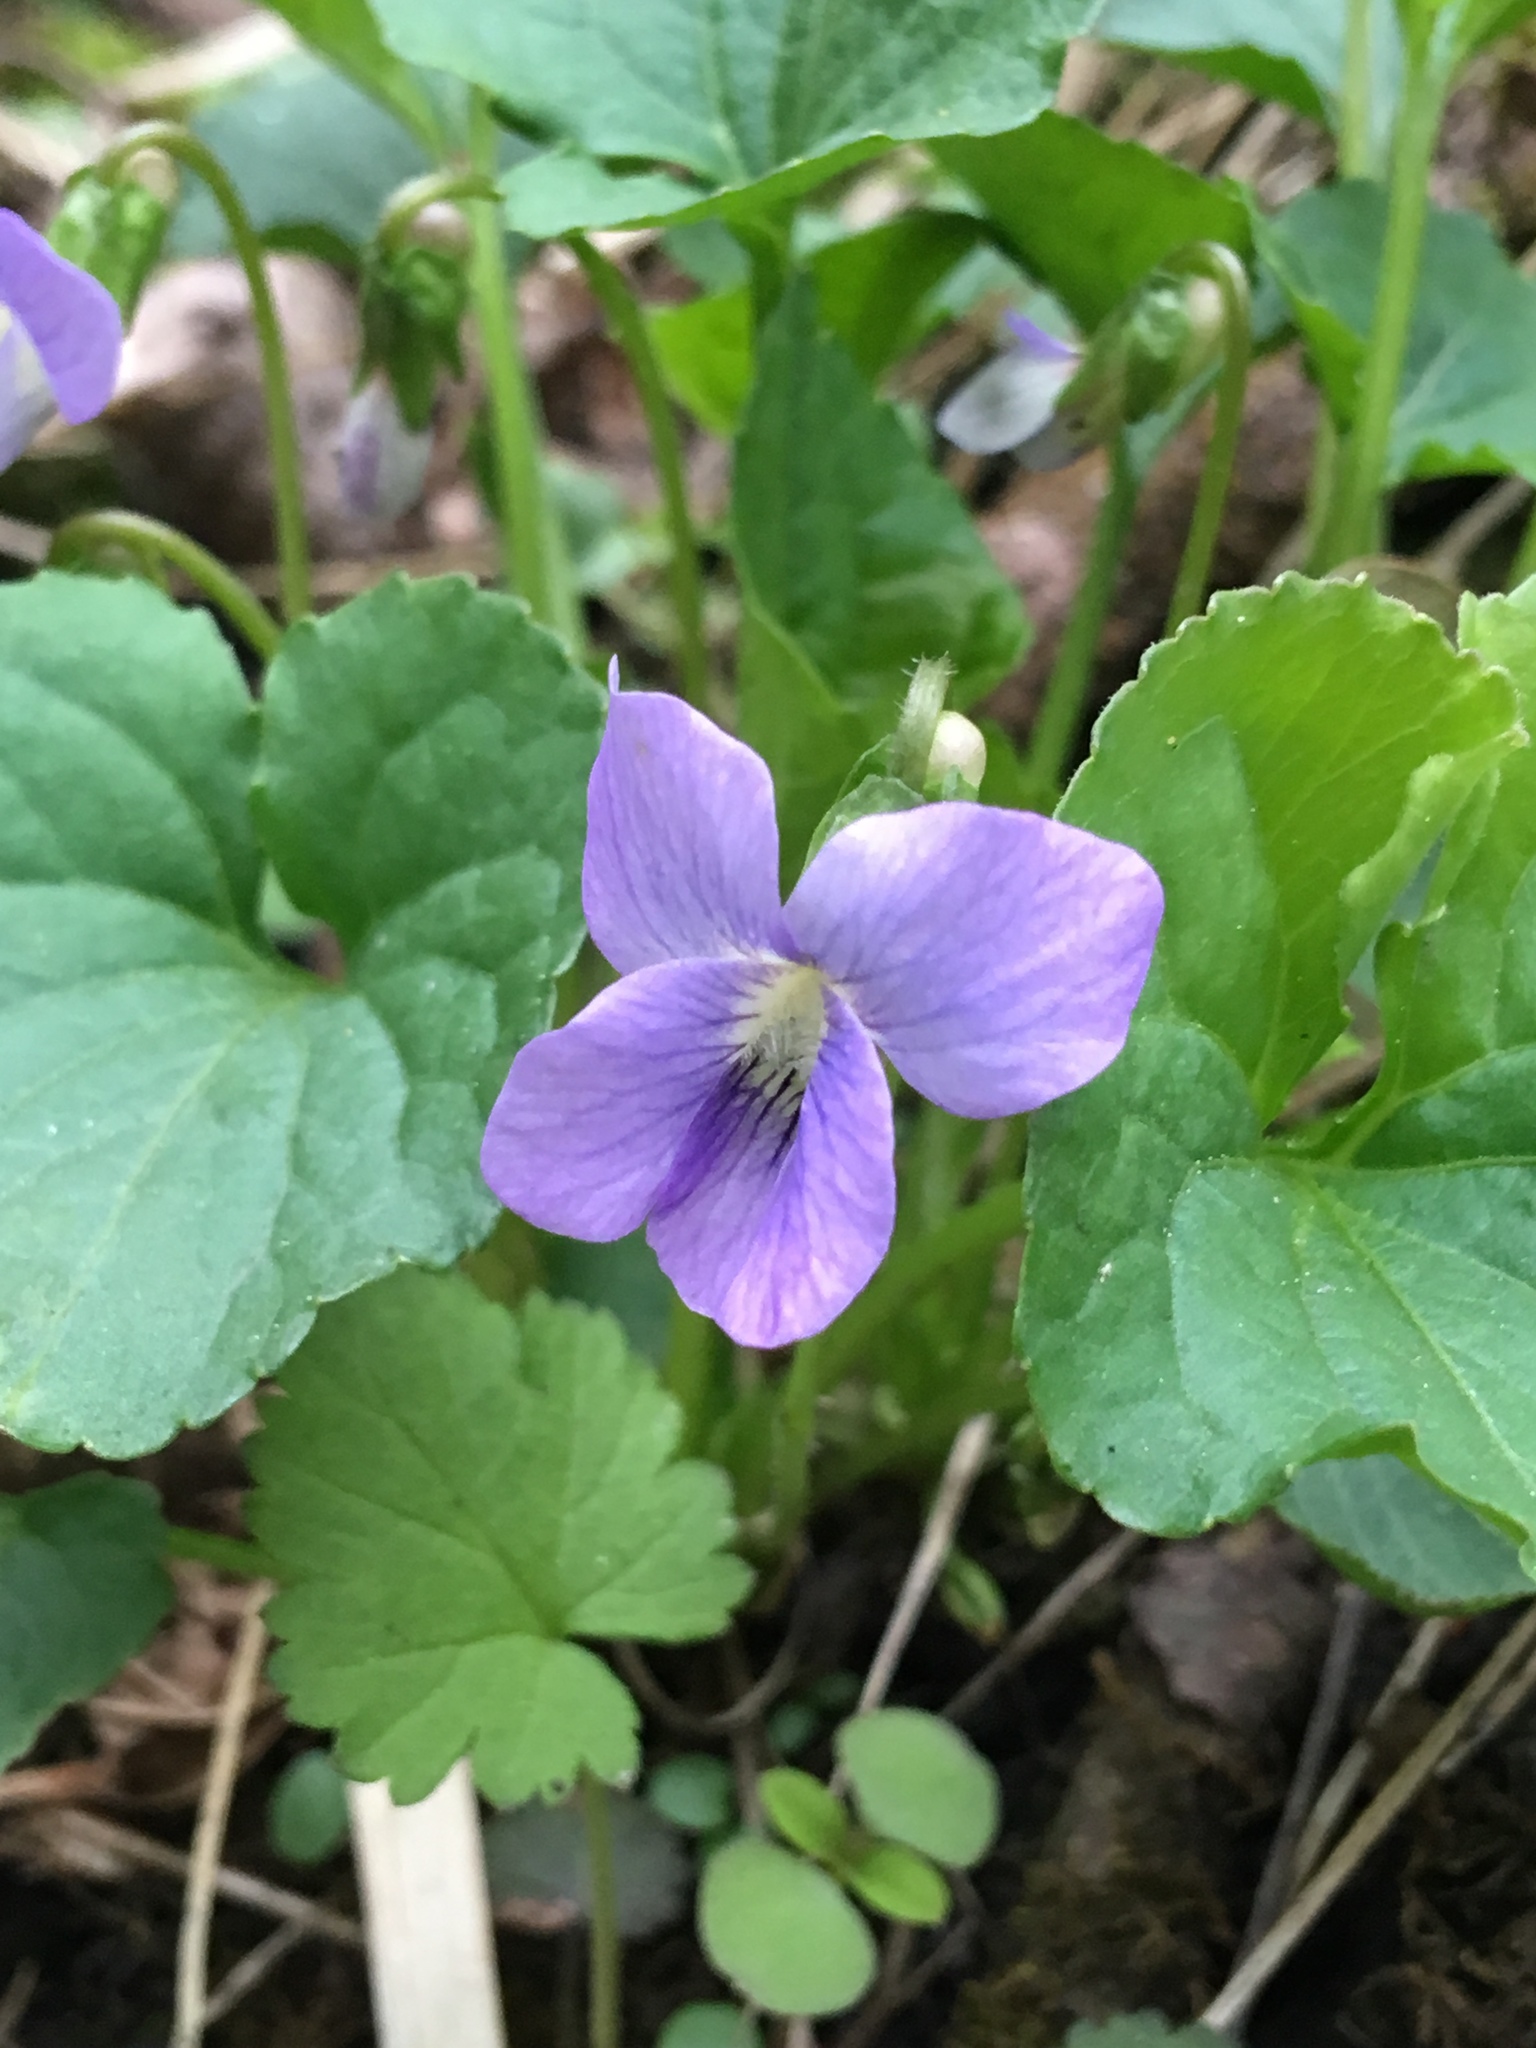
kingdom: Plantae
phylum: Tracheophyta
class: Magnoliopsida
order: Malpighiales
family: Violaceae
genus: Viola
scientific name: Viola sororia
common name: Dooryard violet
